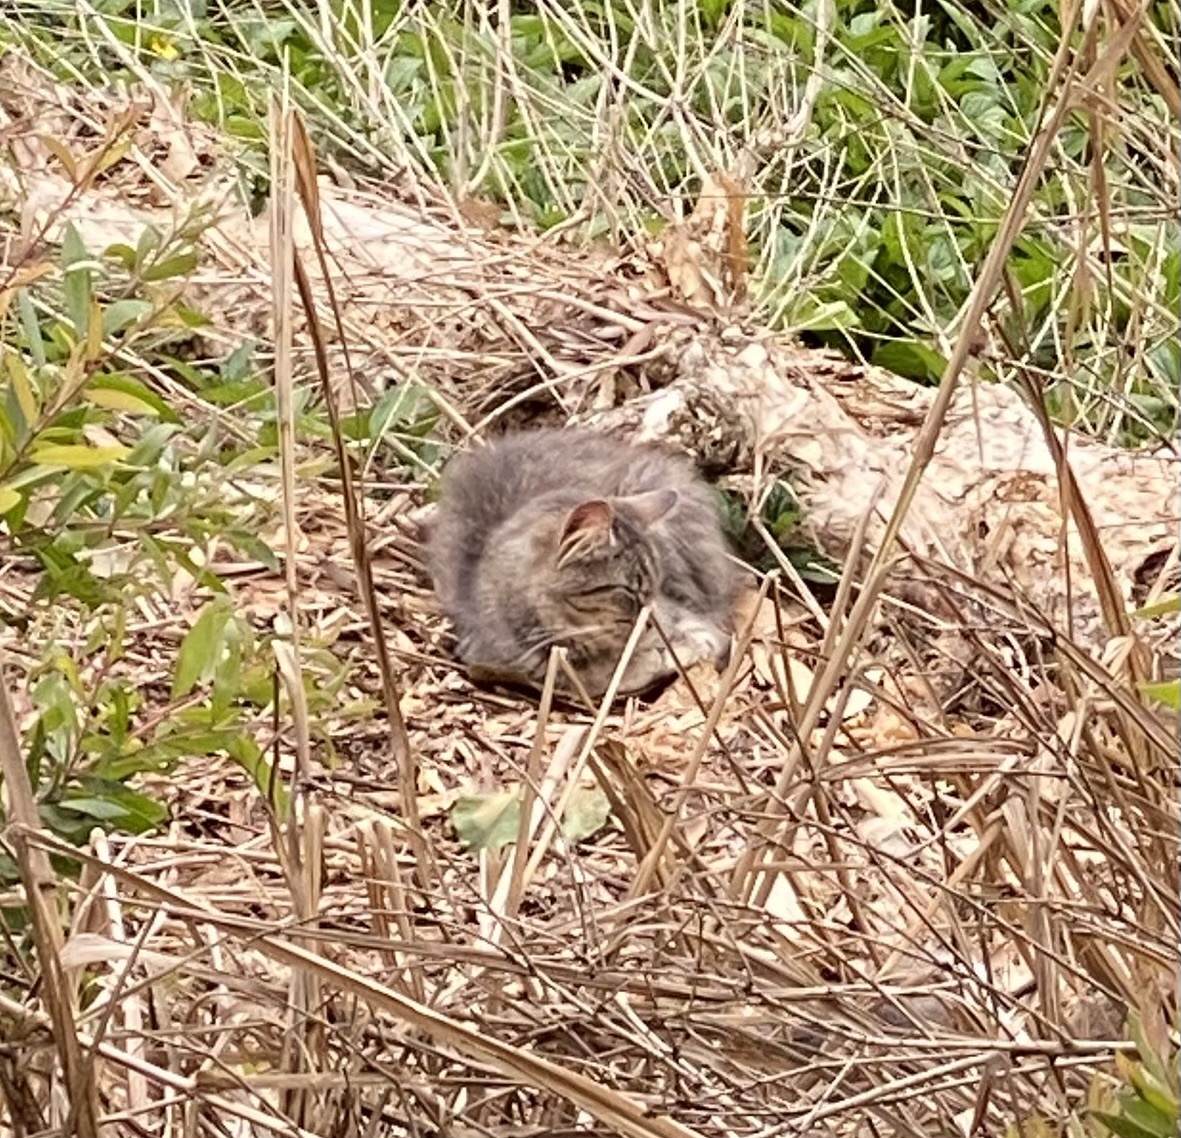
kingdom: Animalia
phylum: Chordata
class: Mammalia
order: Carnivora
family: Felidae
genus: Felis
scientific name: Felis catus
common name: Domestic cat
